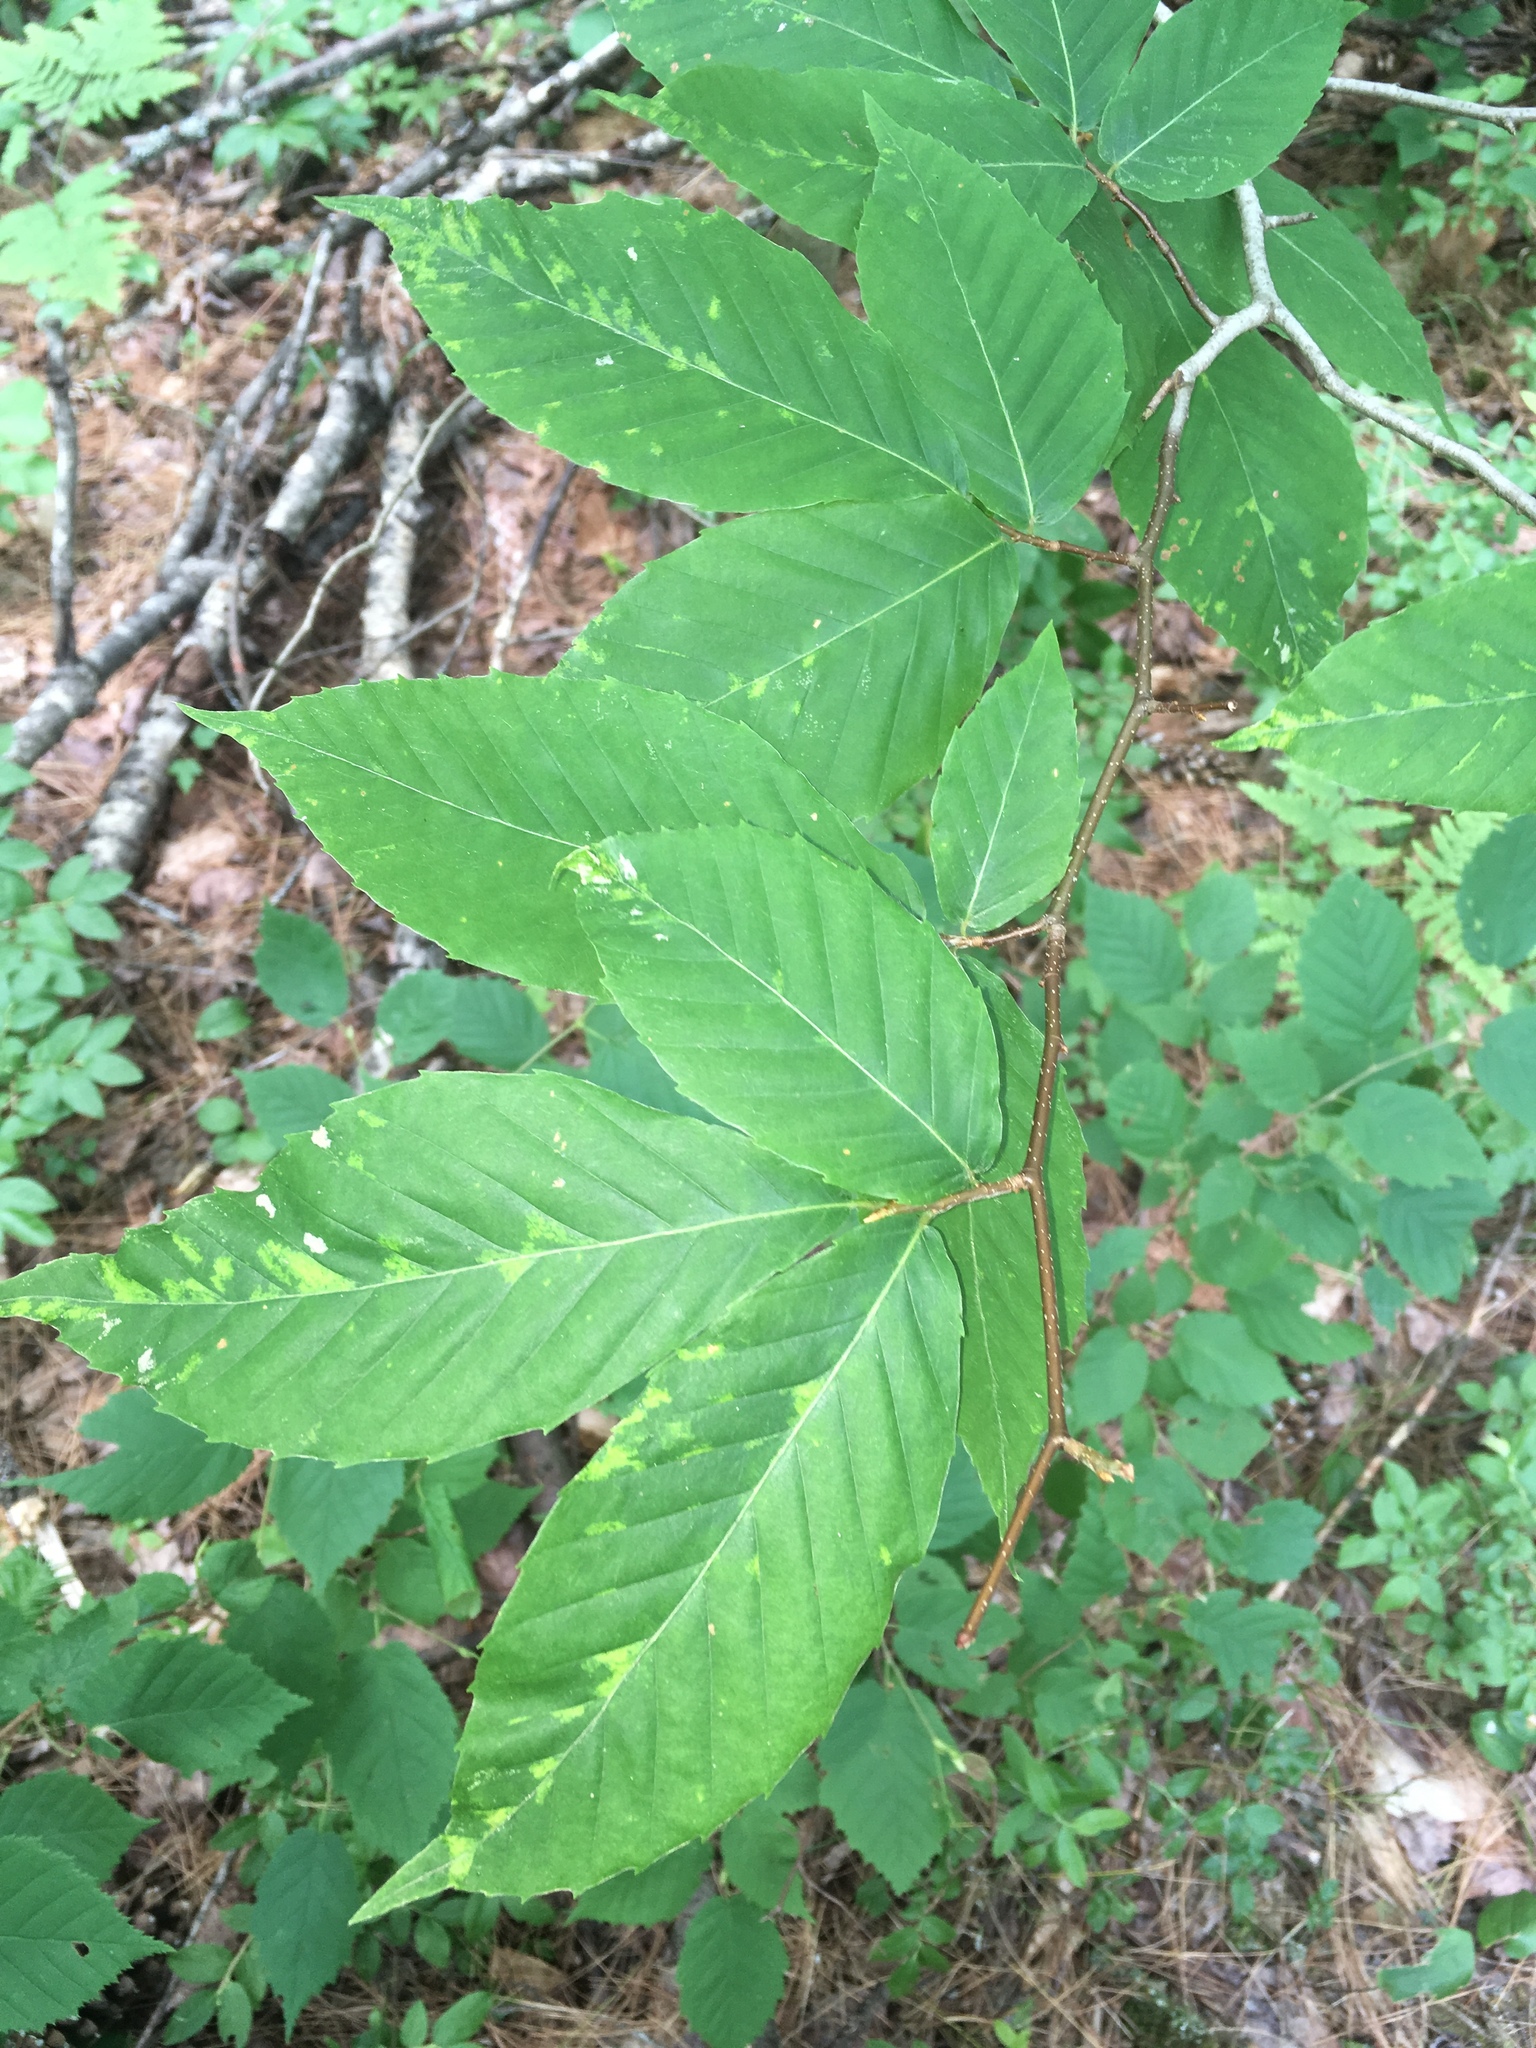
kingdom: Plantae
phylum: Tracheophyta
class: Magnoliopsida
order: Fagales
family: Fagaceae
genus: Fagus
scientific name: Fagus grandifolia
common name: American beech
